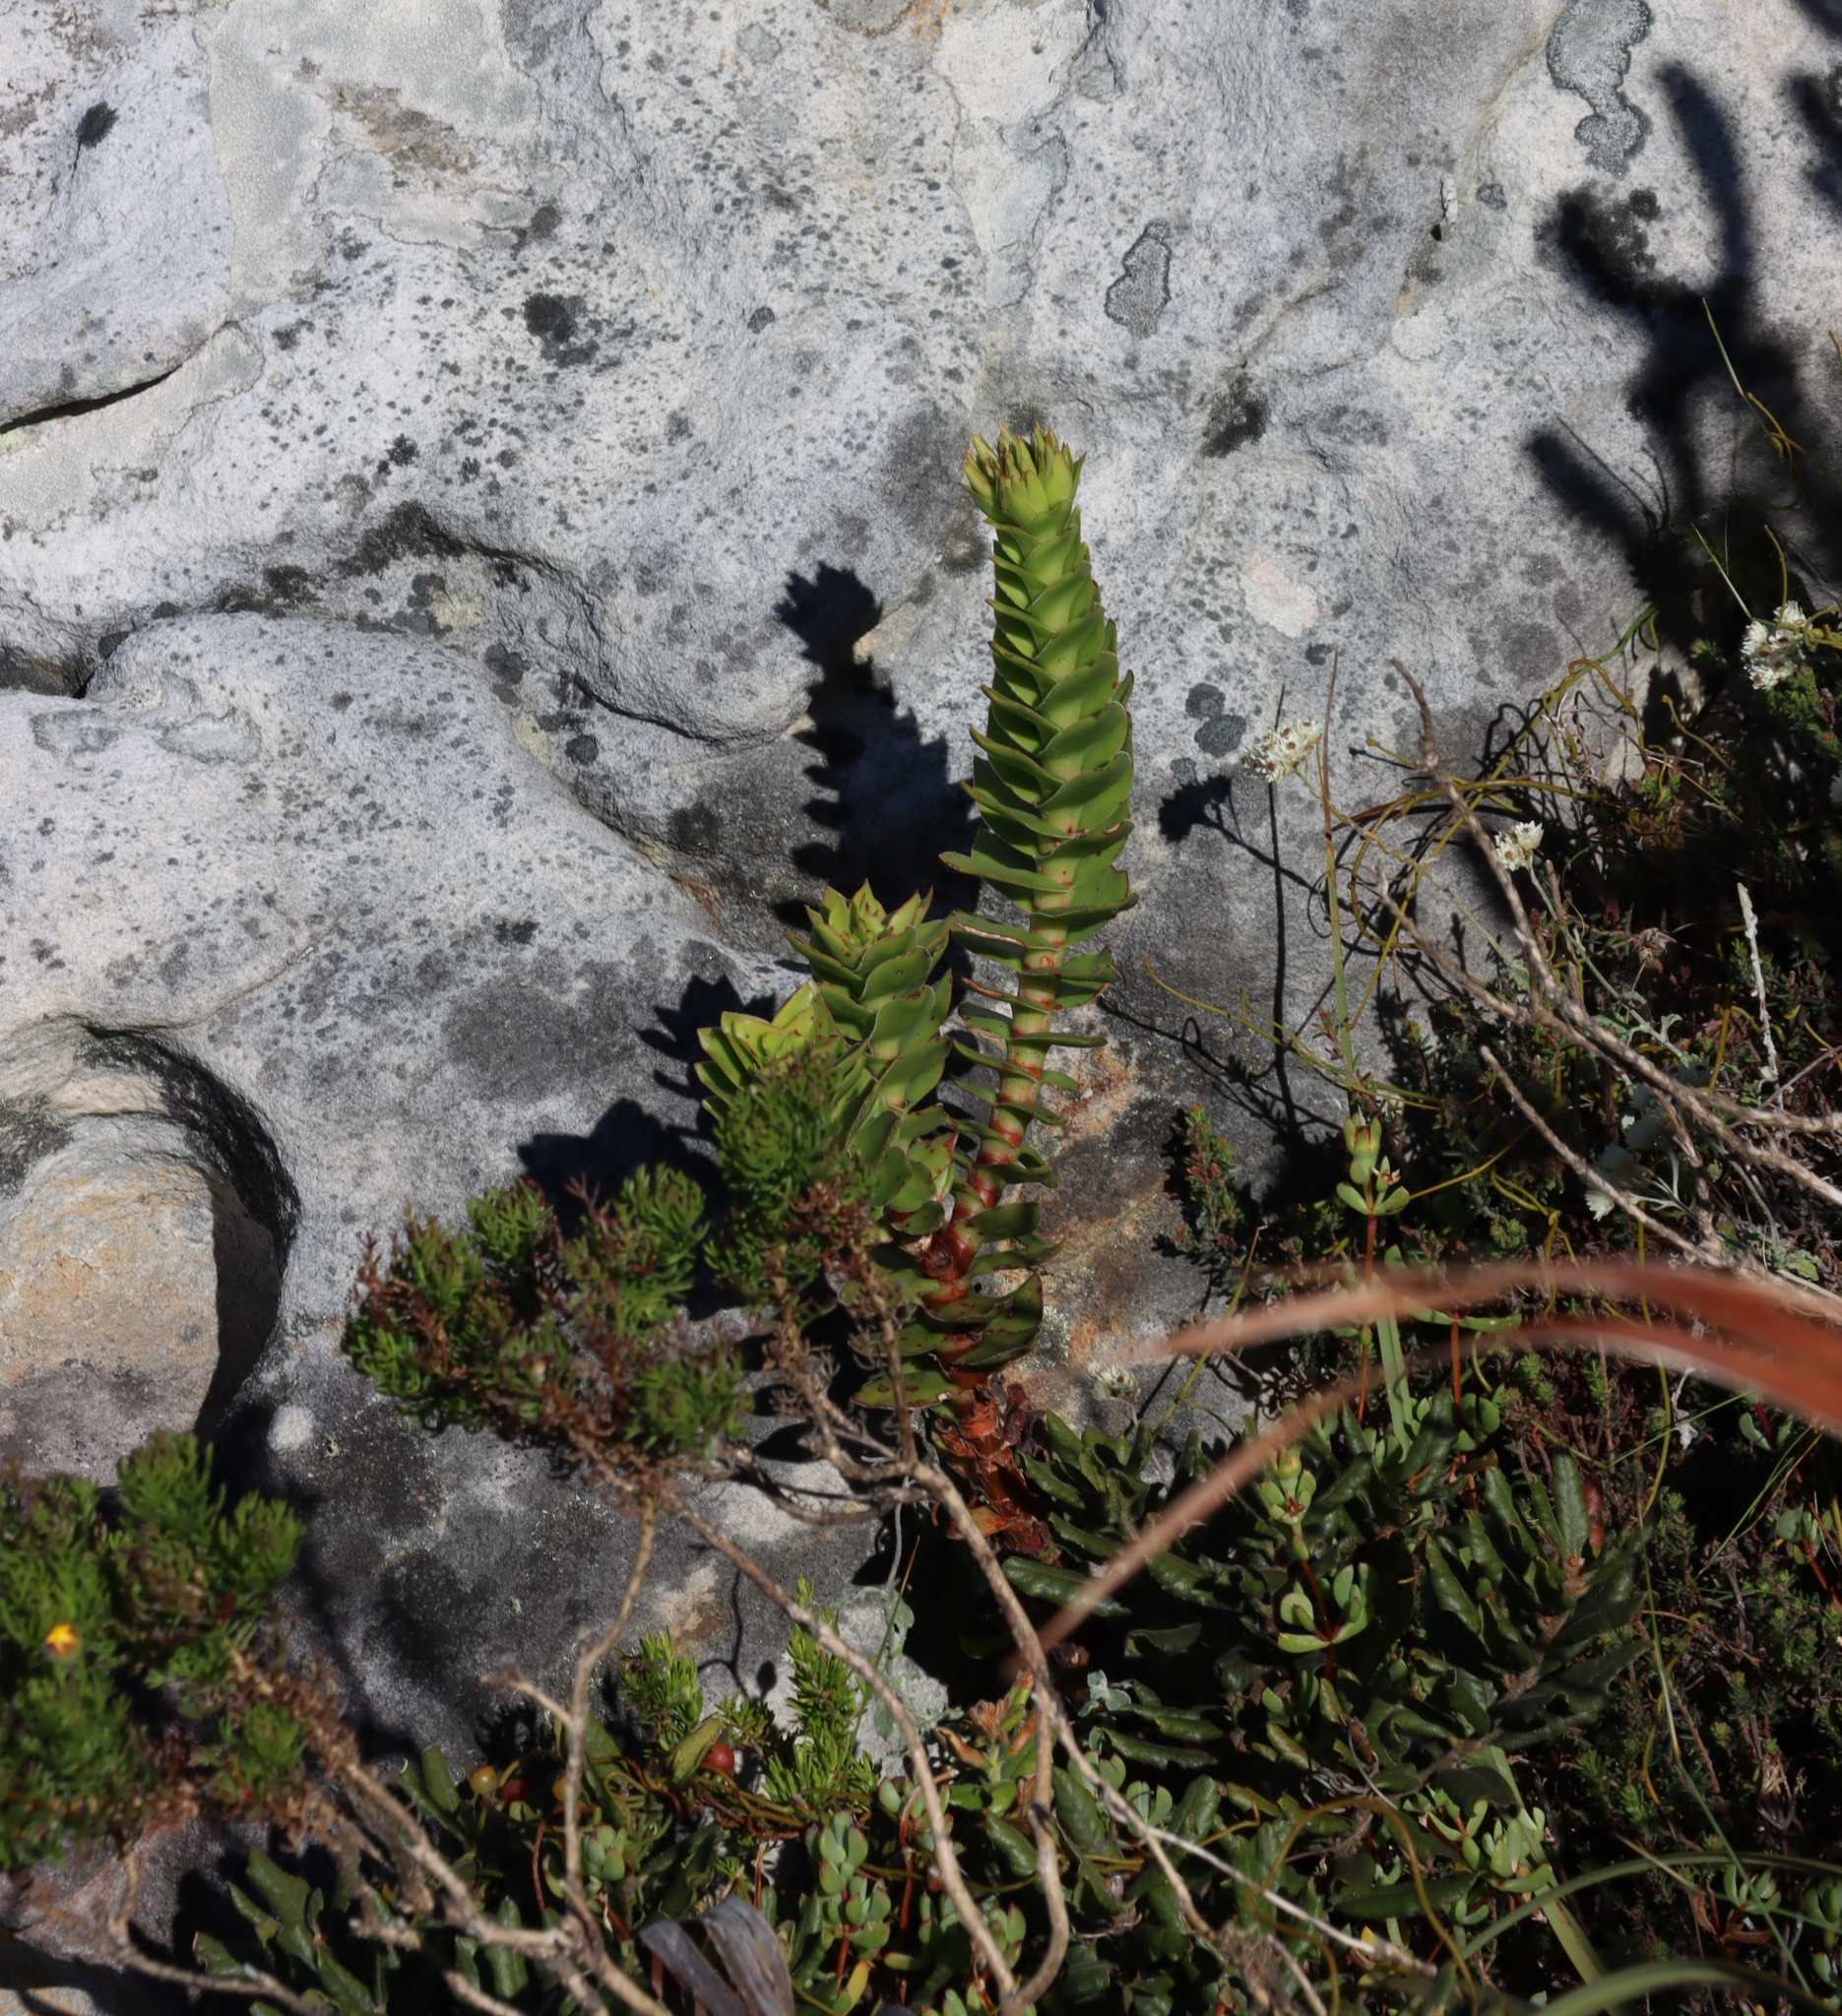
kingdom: Plantae
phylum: Tracheophyta
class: Magnoliopsida
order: Saxifragales
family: Crassulaceae
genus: Crassula
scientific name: Crassula coccinea
